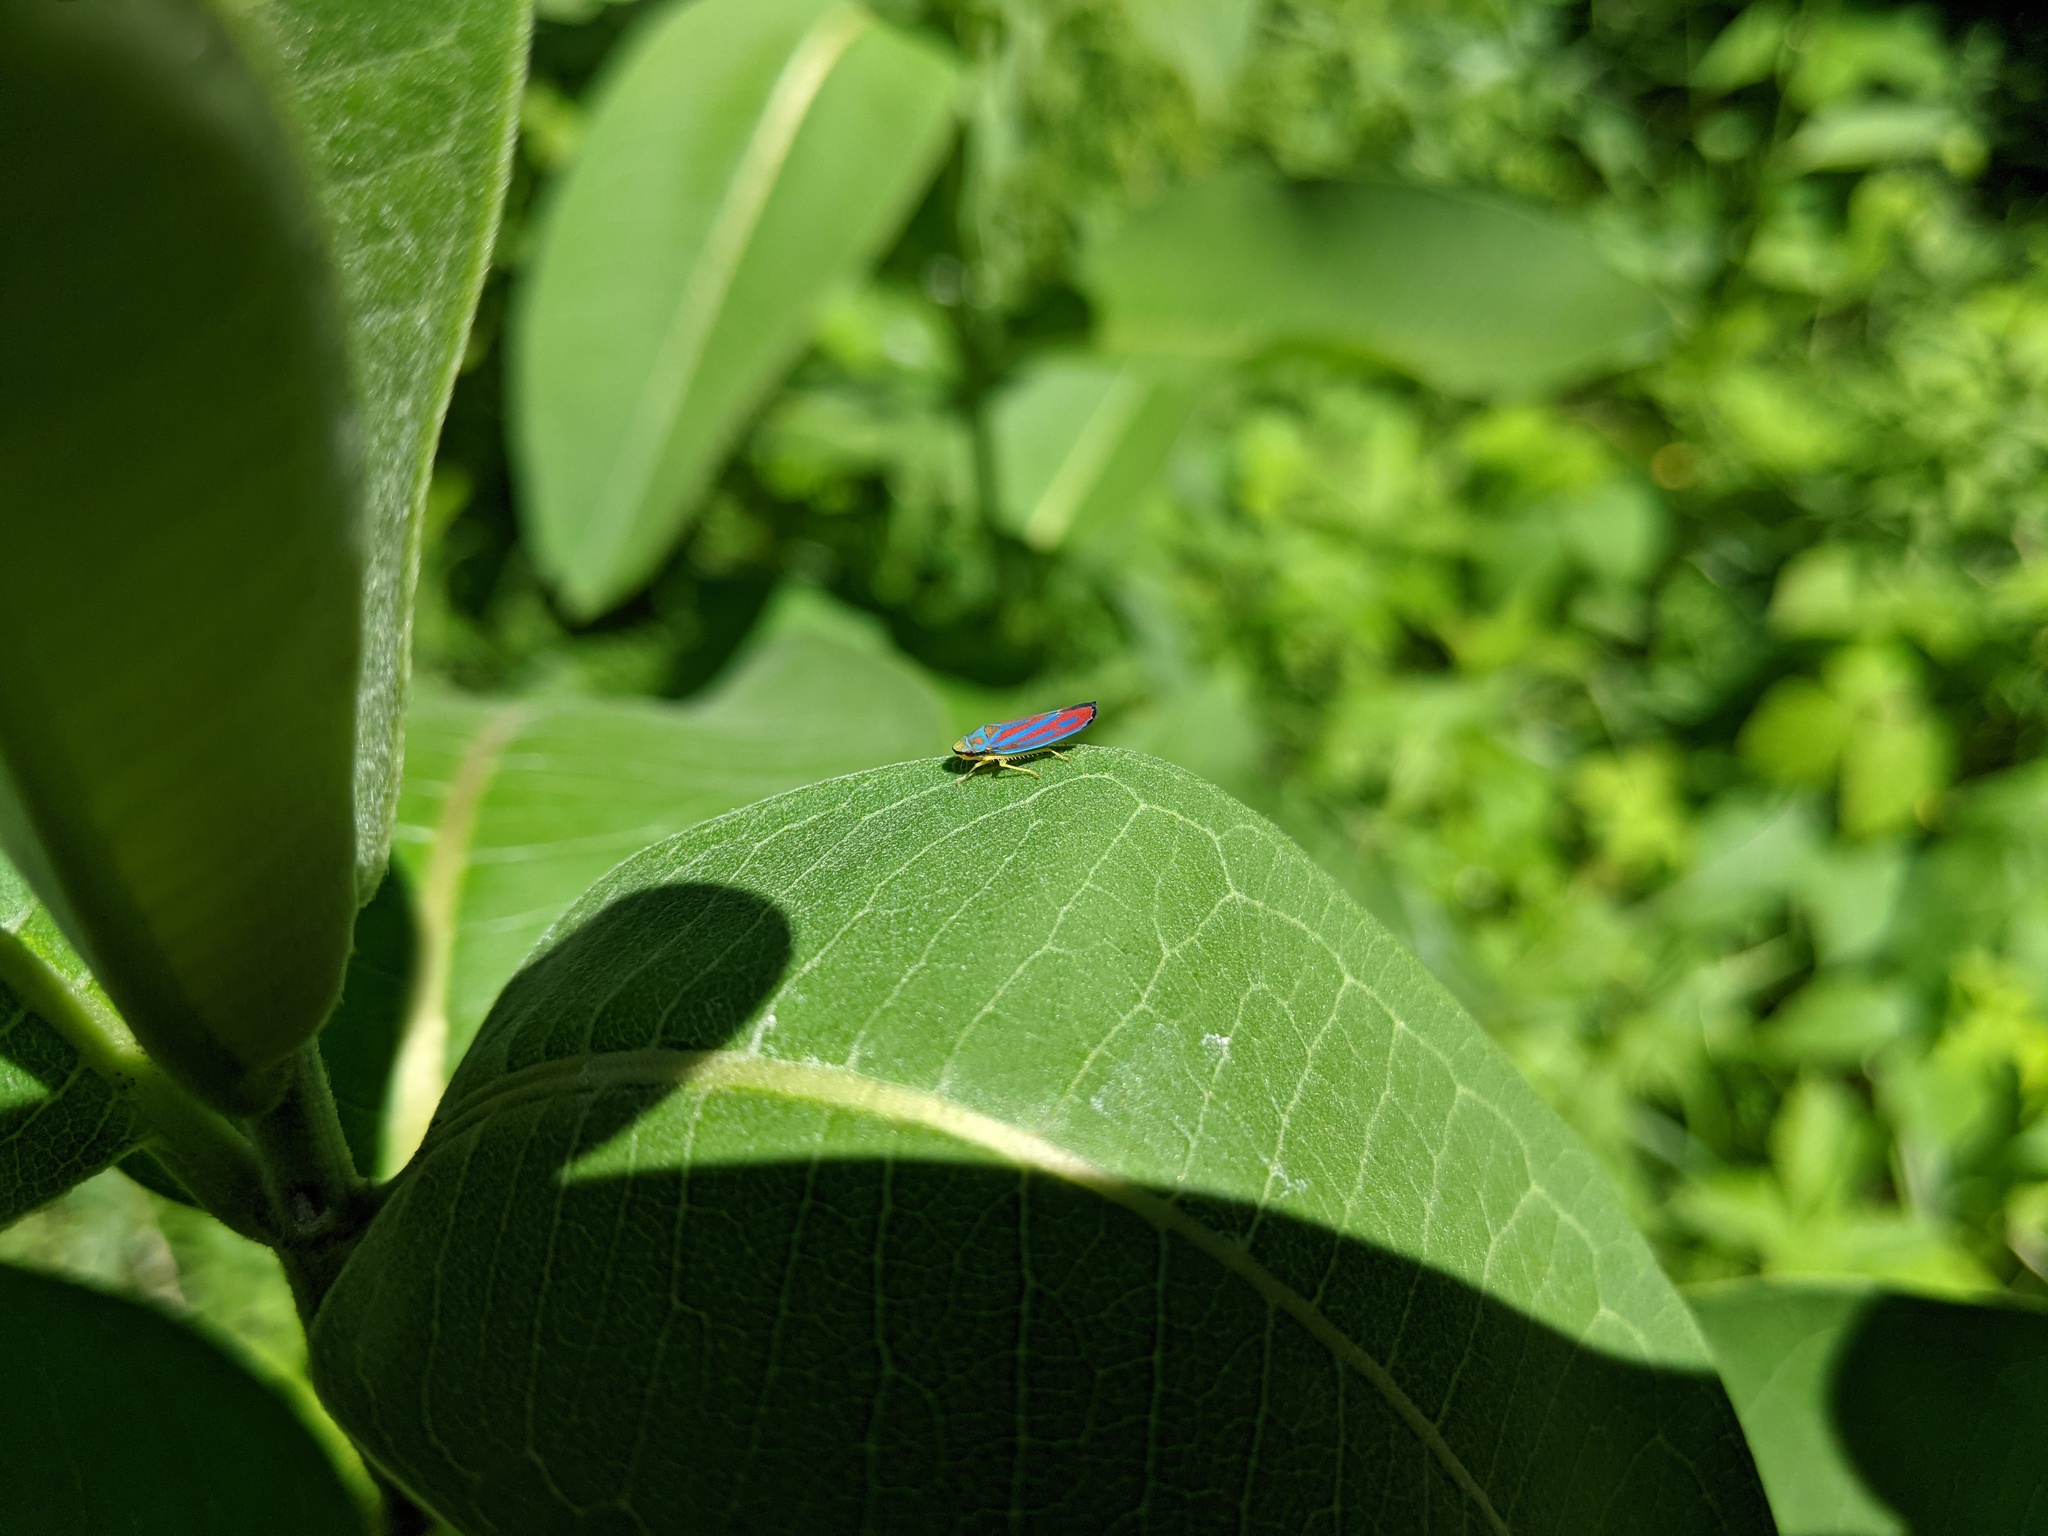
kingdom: Animalia
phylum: Arthropoda
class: Insecta
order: Hemiptera
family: Cicadellidae
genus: Graphocephala
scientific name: Graphocephala coccinea
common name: Candy-striped leafhopper
